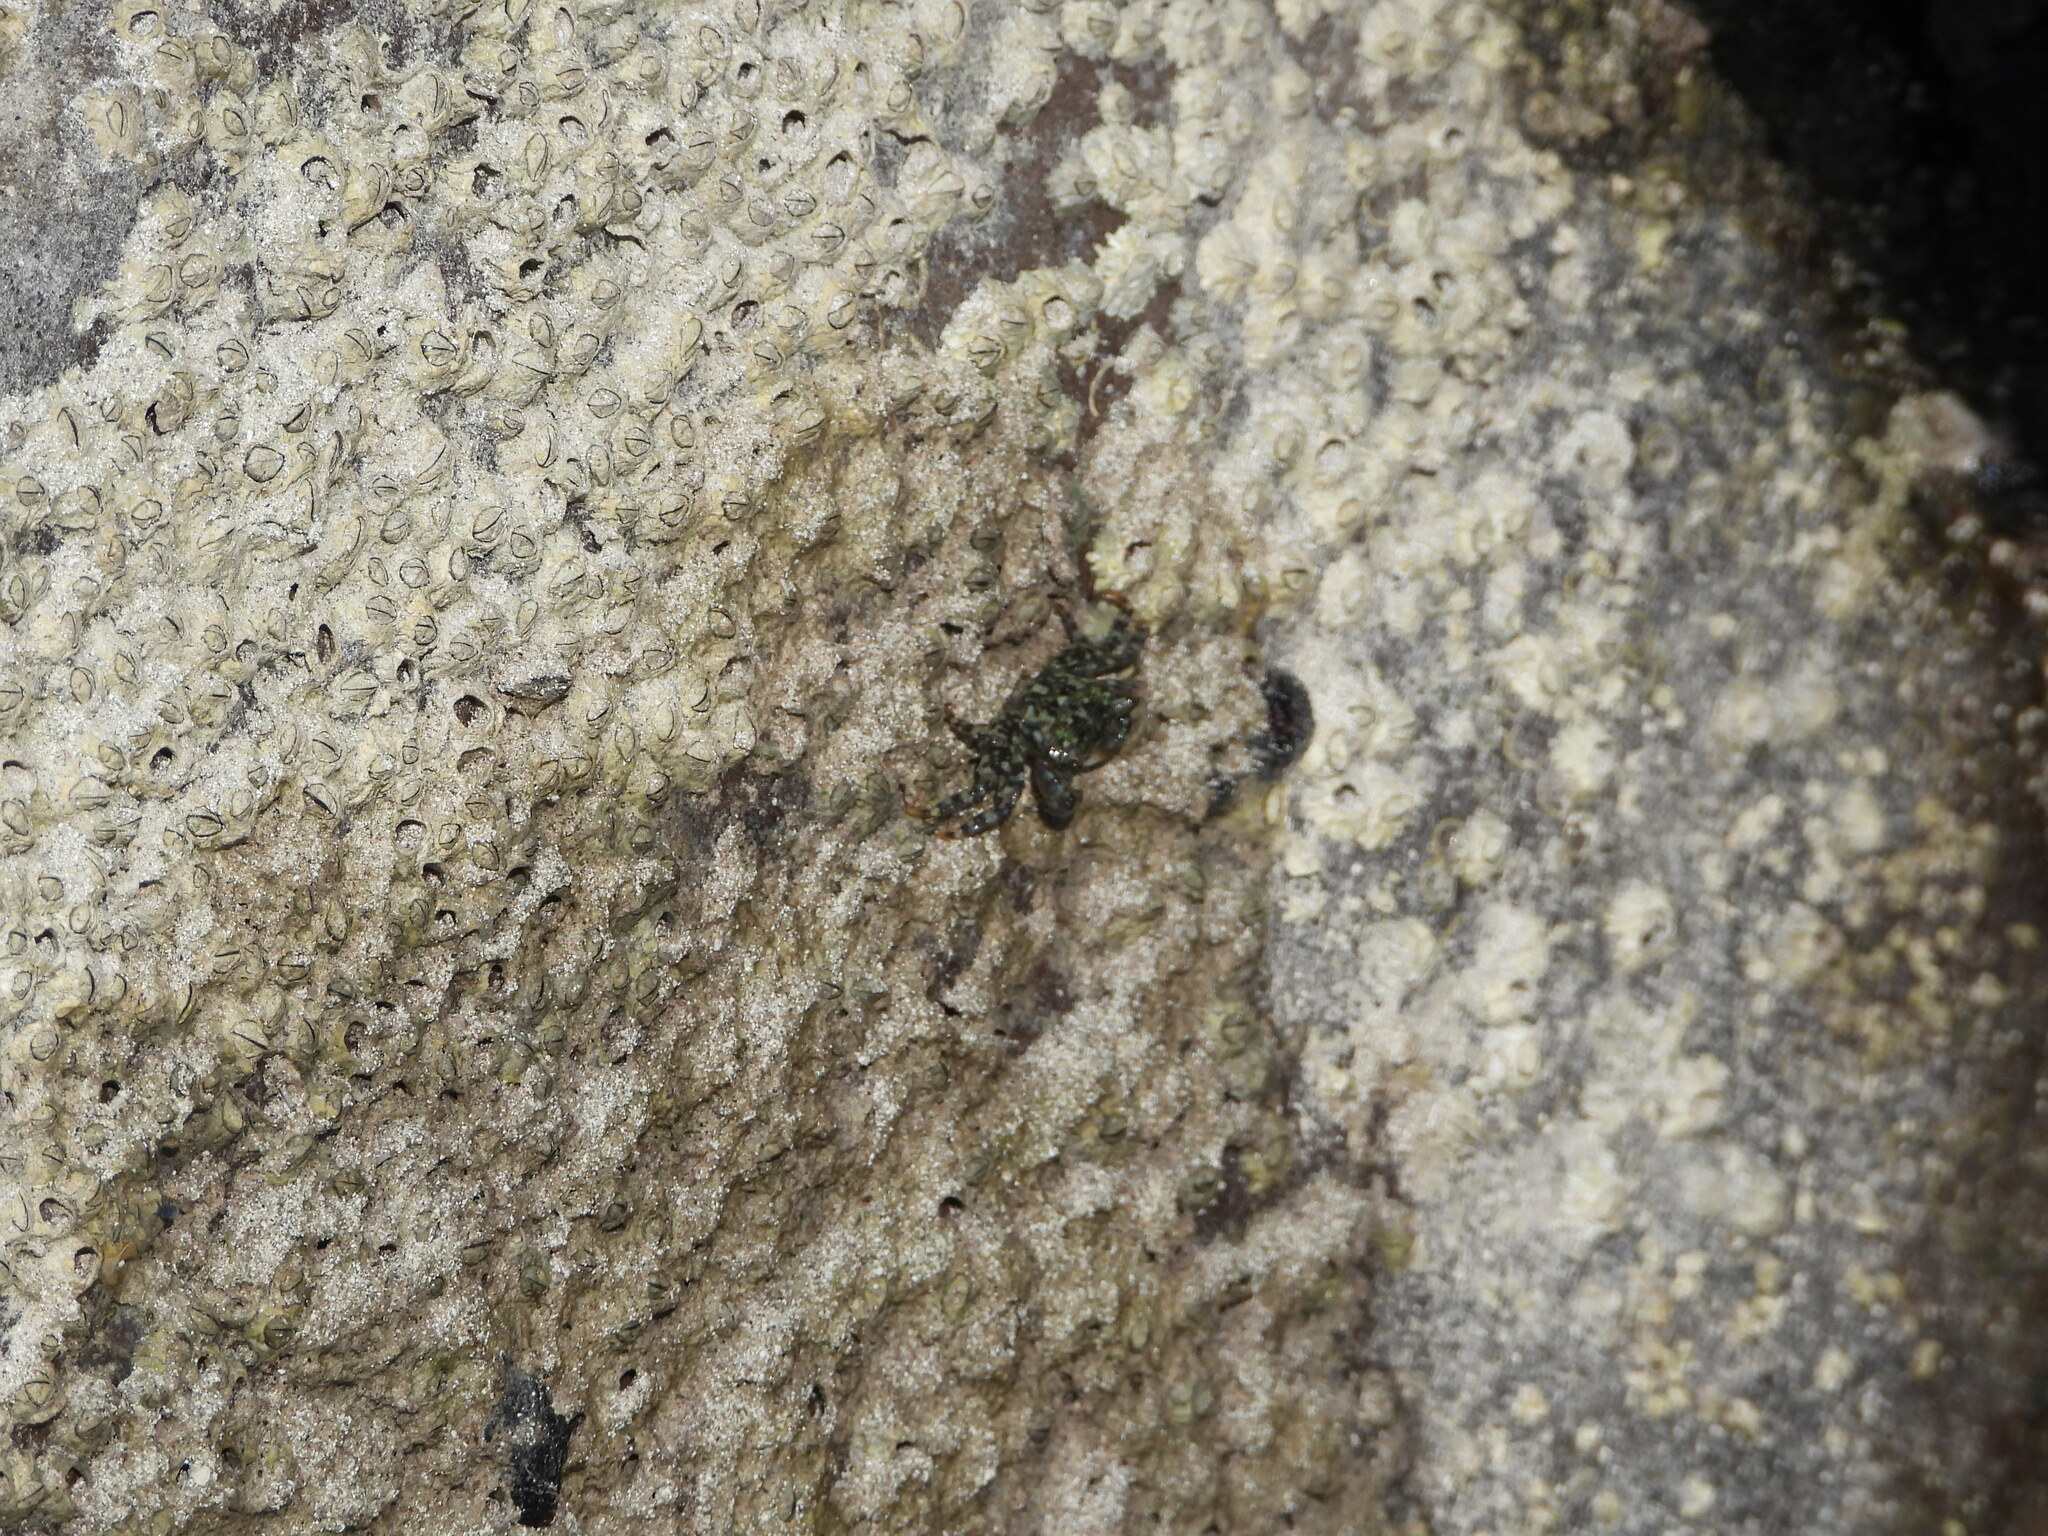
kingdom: Animalia
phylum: Arthropoda
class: Malacostraca
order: Decapoda
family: Grapsidae
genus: Pachygrapsus
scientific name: Pachygrapsus transversus
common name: Mottled shore crab
